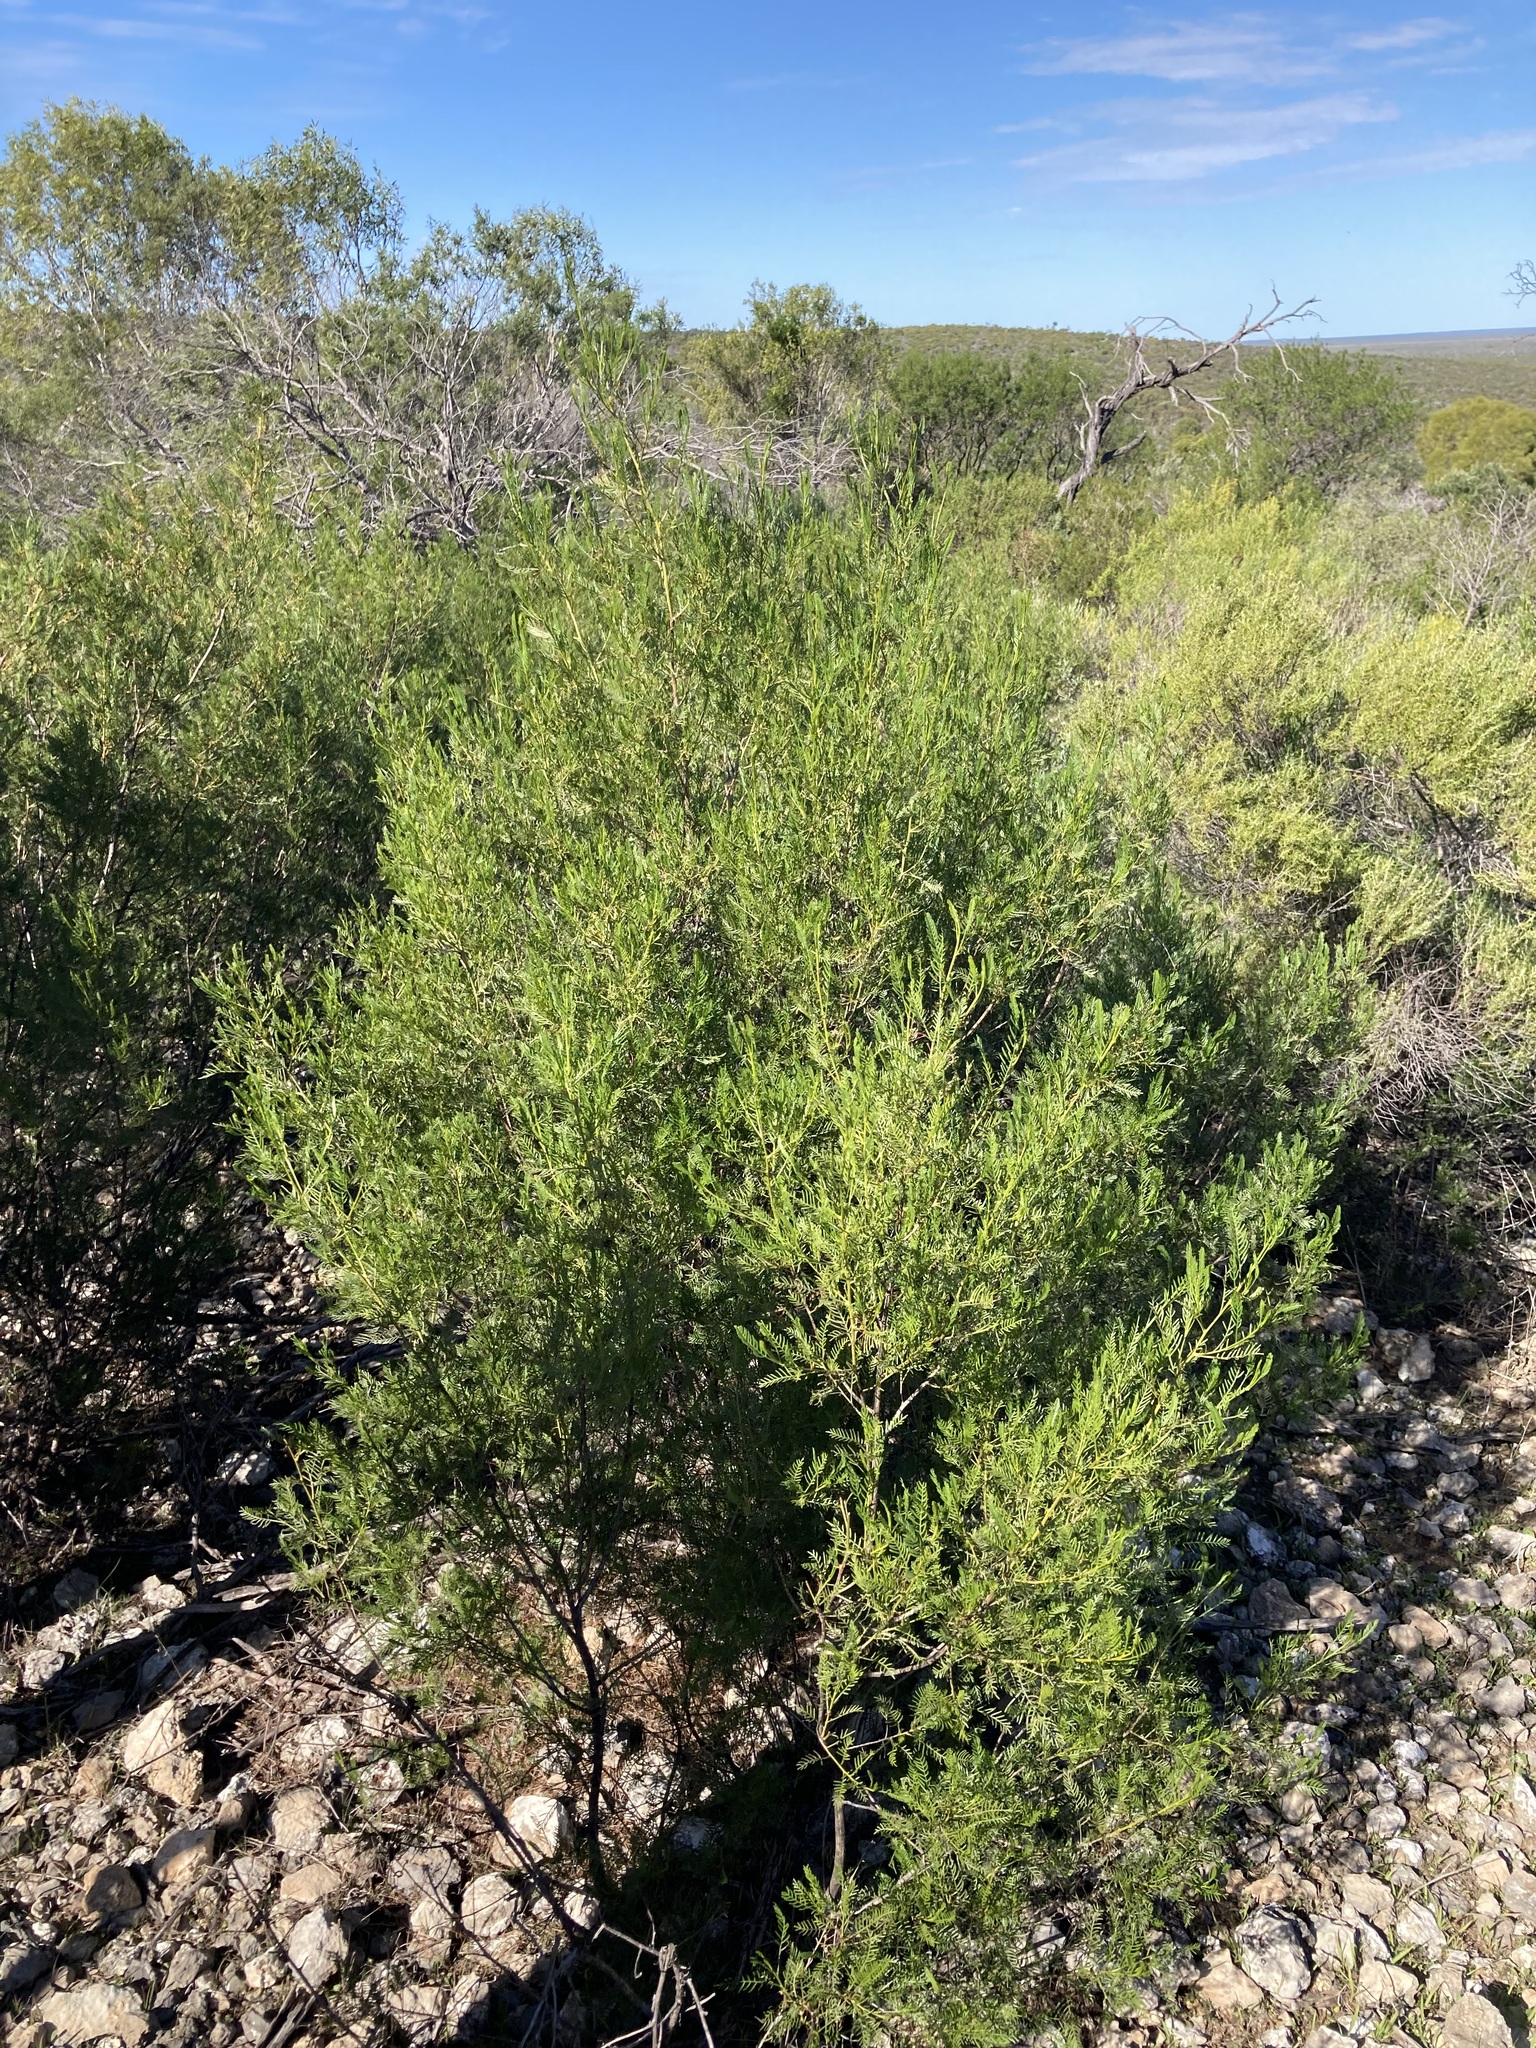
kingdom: Plantae
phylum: Tracheophyta
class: Magnoliopsida
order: Sapindales
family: Sapindaceae
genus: Dodonaea
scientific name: Dodonaea inaequifolia
